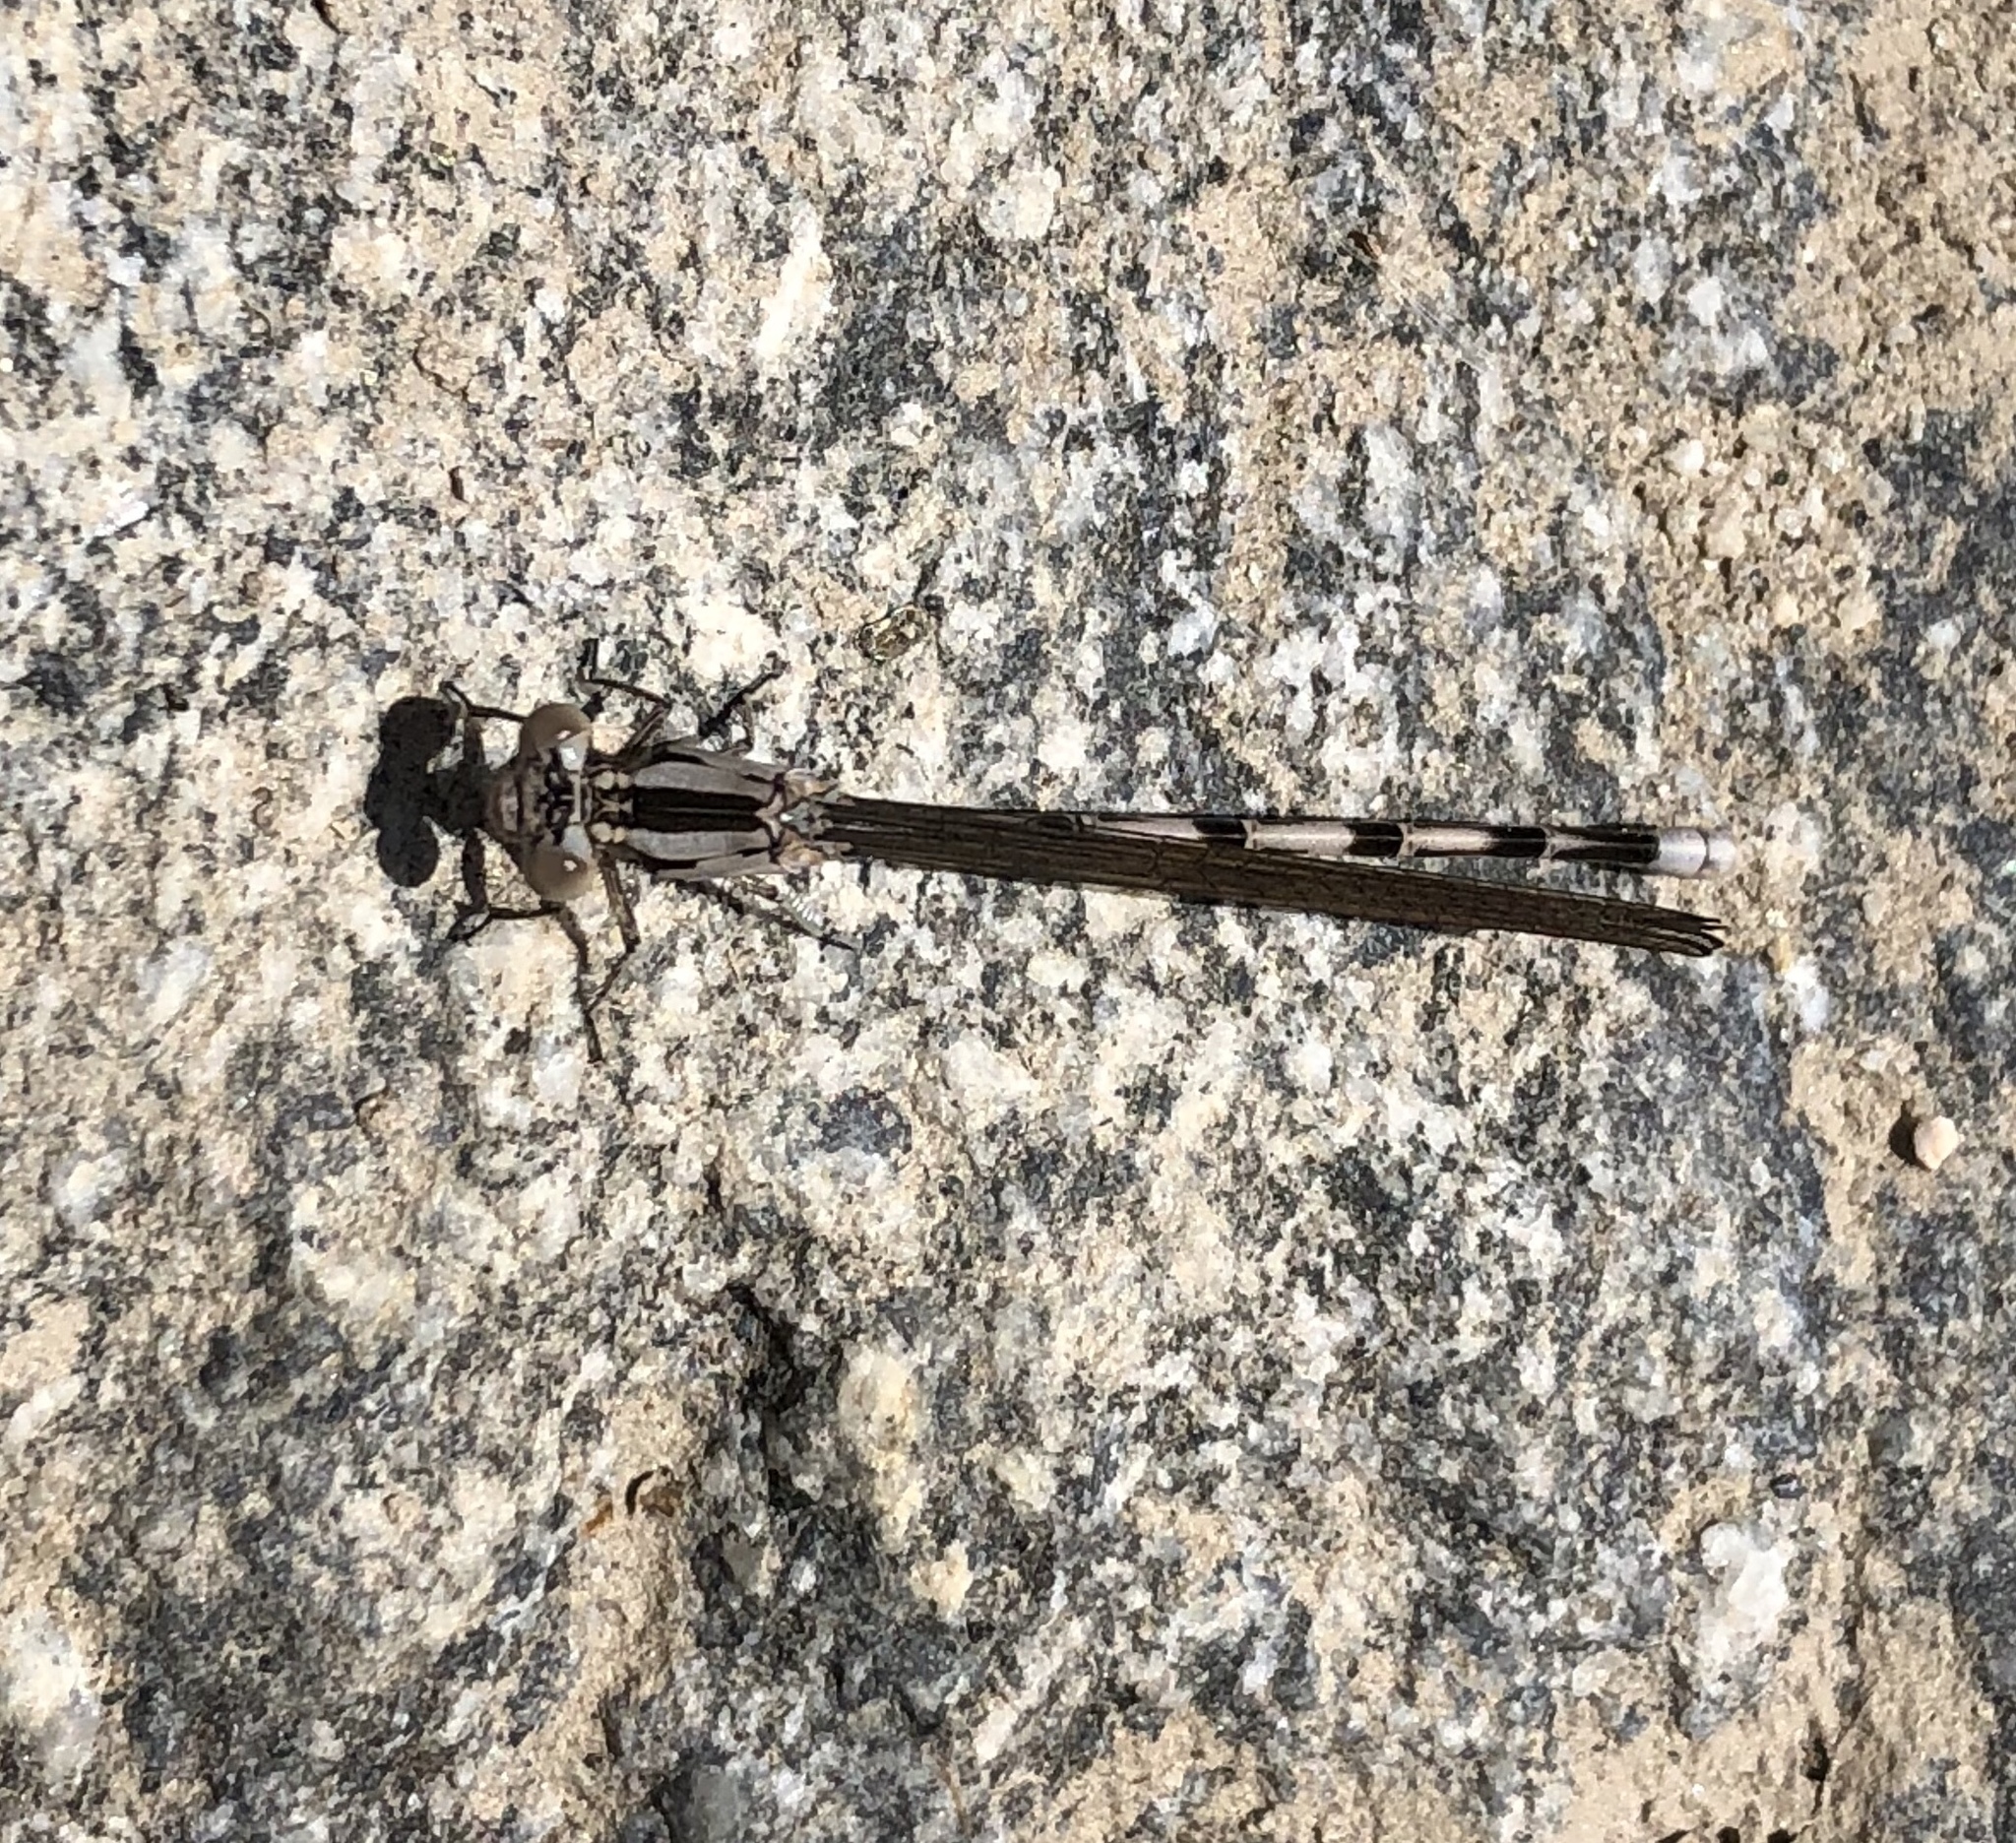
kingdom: Animalia
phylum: Arthropoda
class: Insecta
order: Odonata
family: Coenagrionidae
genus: Argia
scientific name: Argia vivida
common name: Vivid dancer
